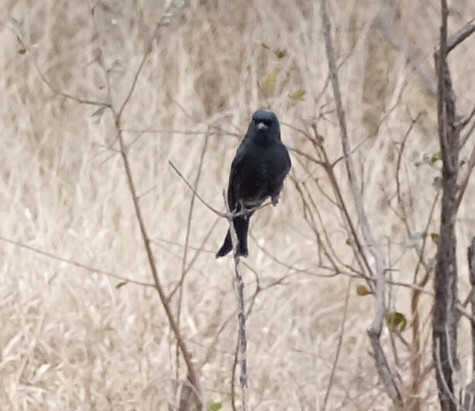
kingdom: Animalia
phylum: Chordata
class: Aves
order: Passeriformes
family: Dicruridae
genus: Dicrurus
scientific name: Dicrurus adsimilis
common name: Fork-tailed drongo
